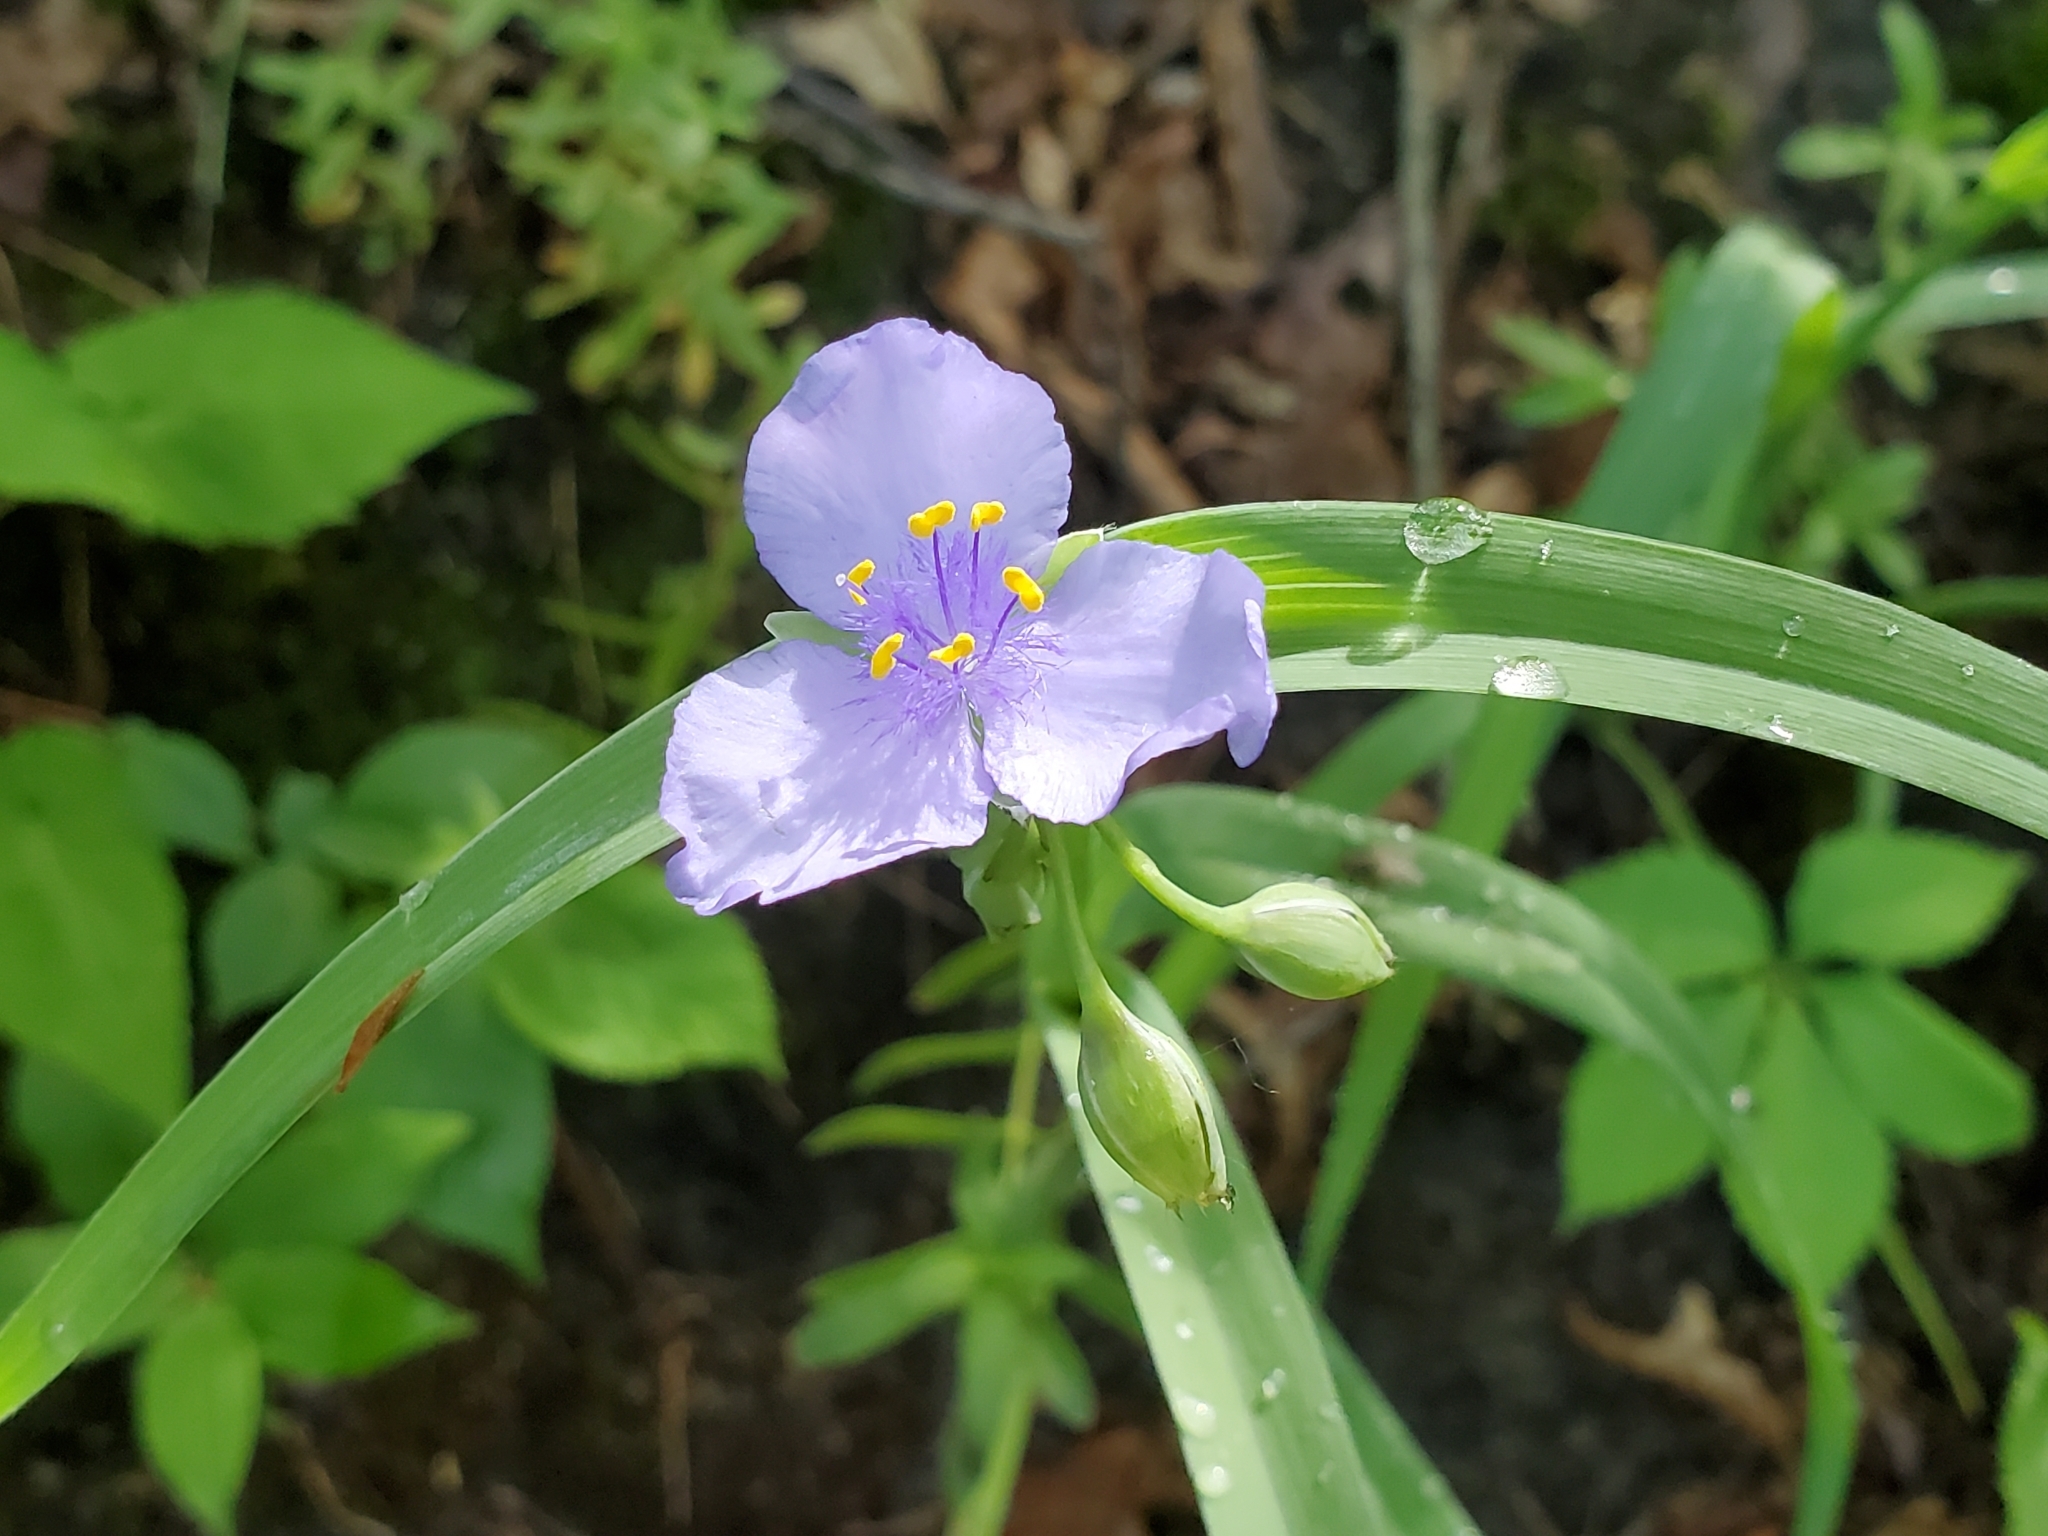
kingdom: Plantae
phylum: Tracheophyta
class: Liliopsida
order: Commelinales
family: Commelinaceae
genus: Tradescantia
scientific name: Tradescantia ohiensis
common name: Ohio spiderwort
